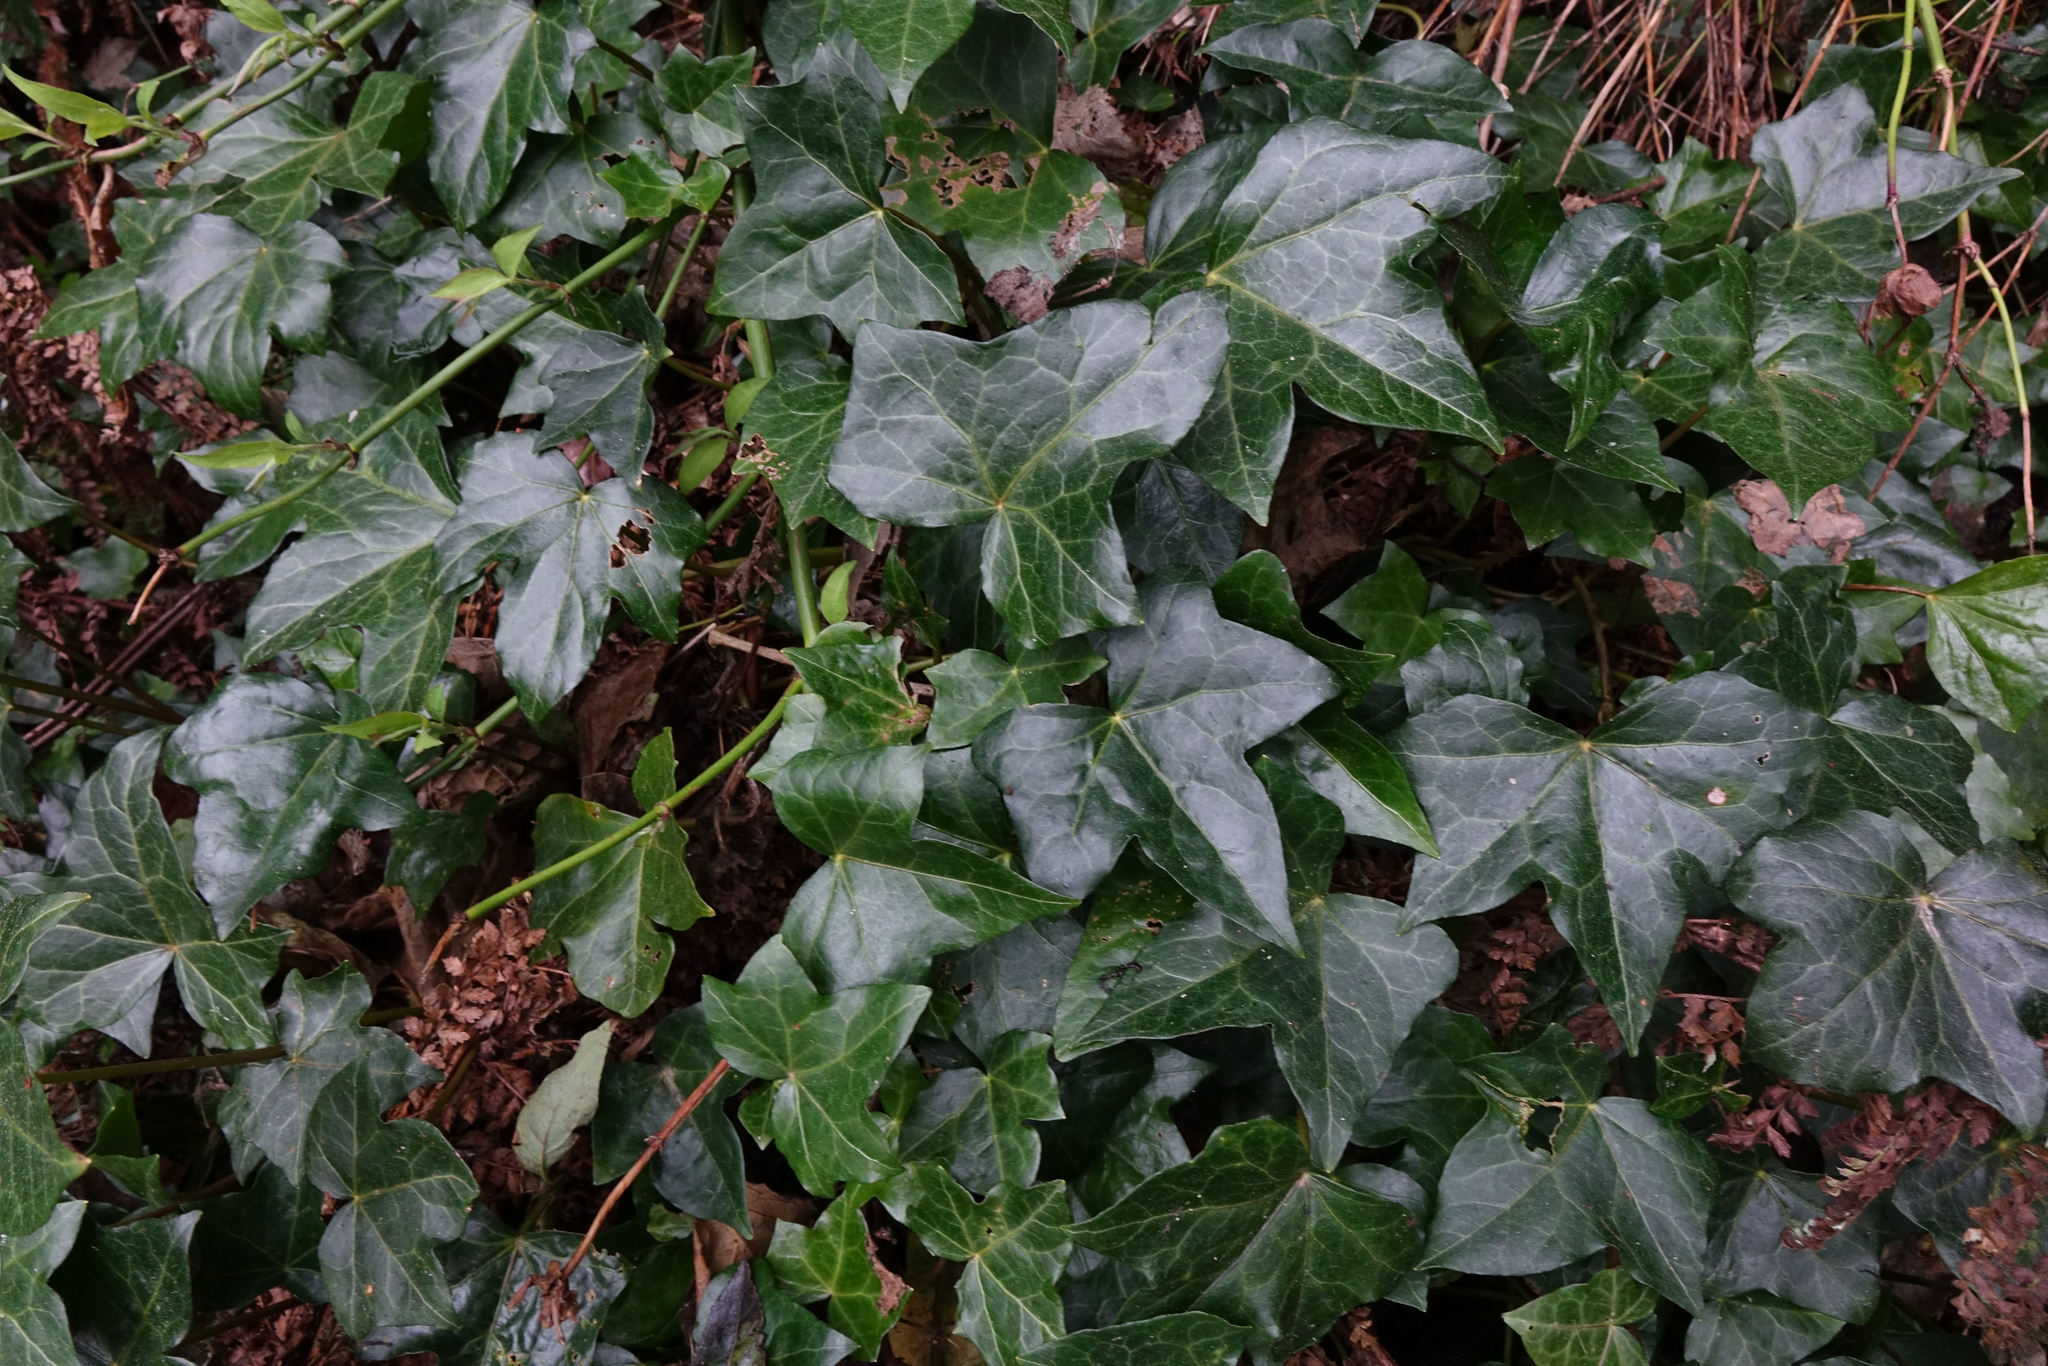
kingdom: Plantae
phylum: Tracheophyta
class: Magnoliopsida
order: Apiales
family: Araliaceae
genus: Hedera
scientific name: Hedera helix
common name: Ivy
